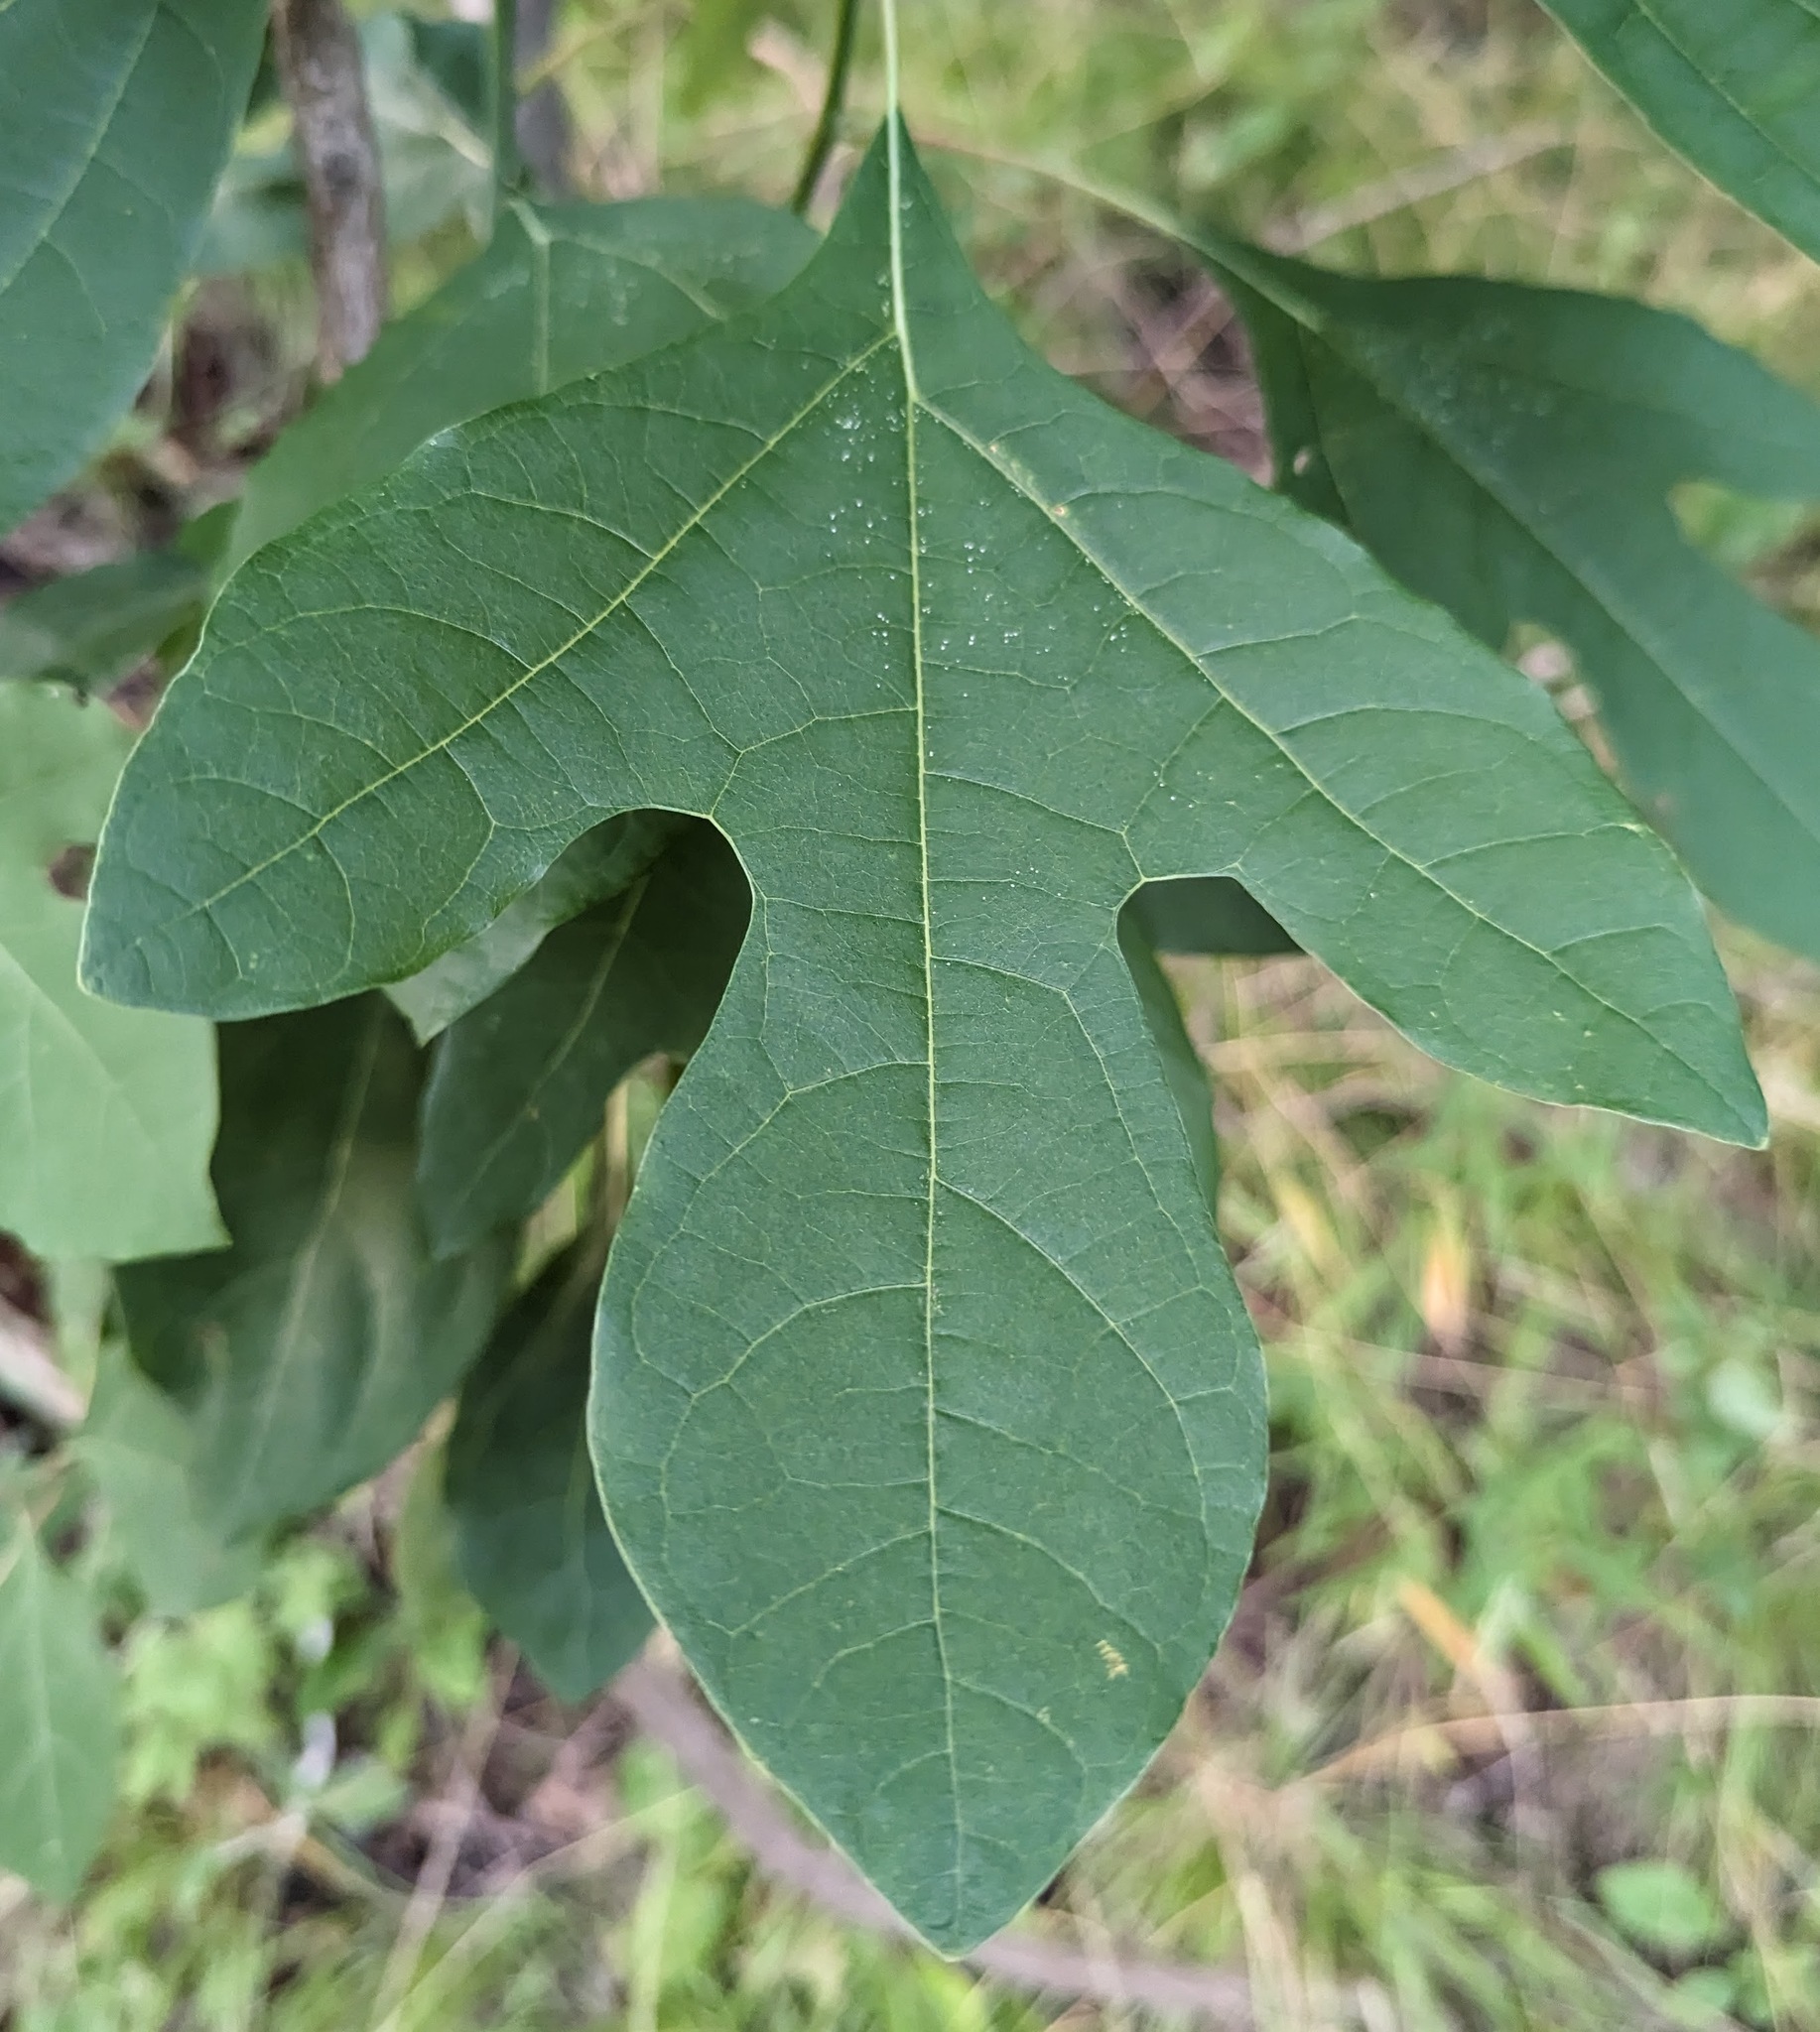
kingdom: Plantae
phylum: Tracheophyta
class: Magnoliopsida
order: Laurales
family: Lauraceae
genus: Sassafras
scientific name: Sassafras albidum
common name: Sassafras
